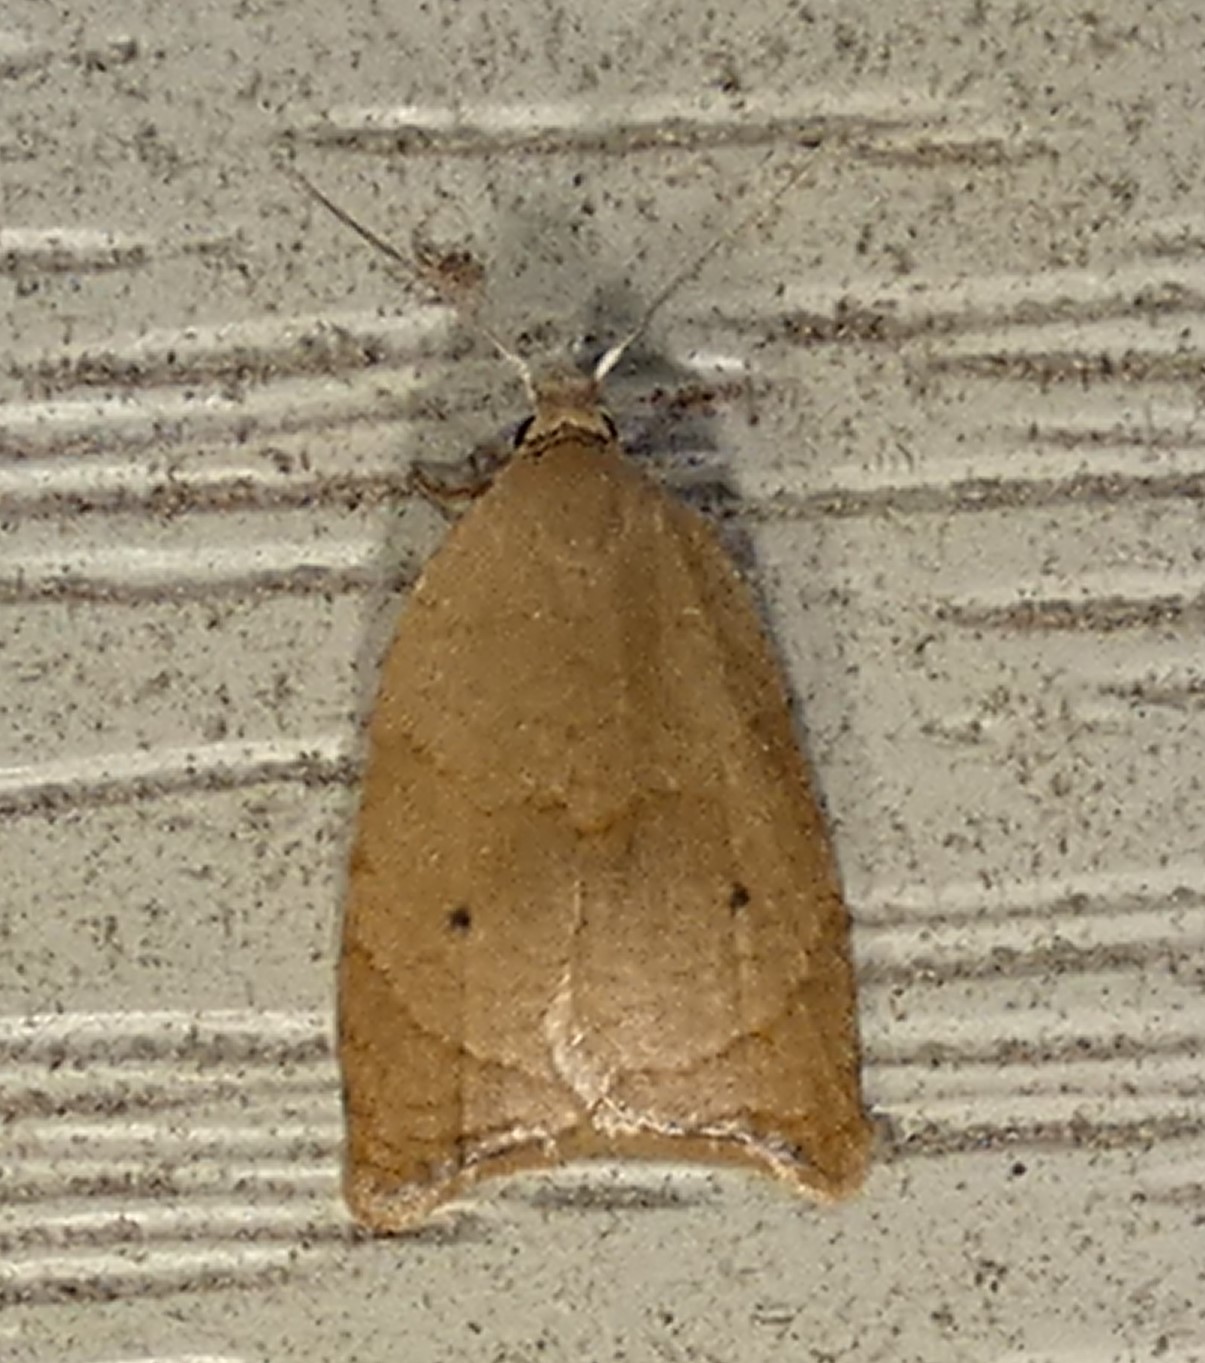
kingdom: Animalia
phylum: Arthropoda
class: Insecta
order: Lepidoptera
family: Tortricidae
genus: Coelostathma
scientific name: Coelostathma discopunctana
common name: Batman moth
